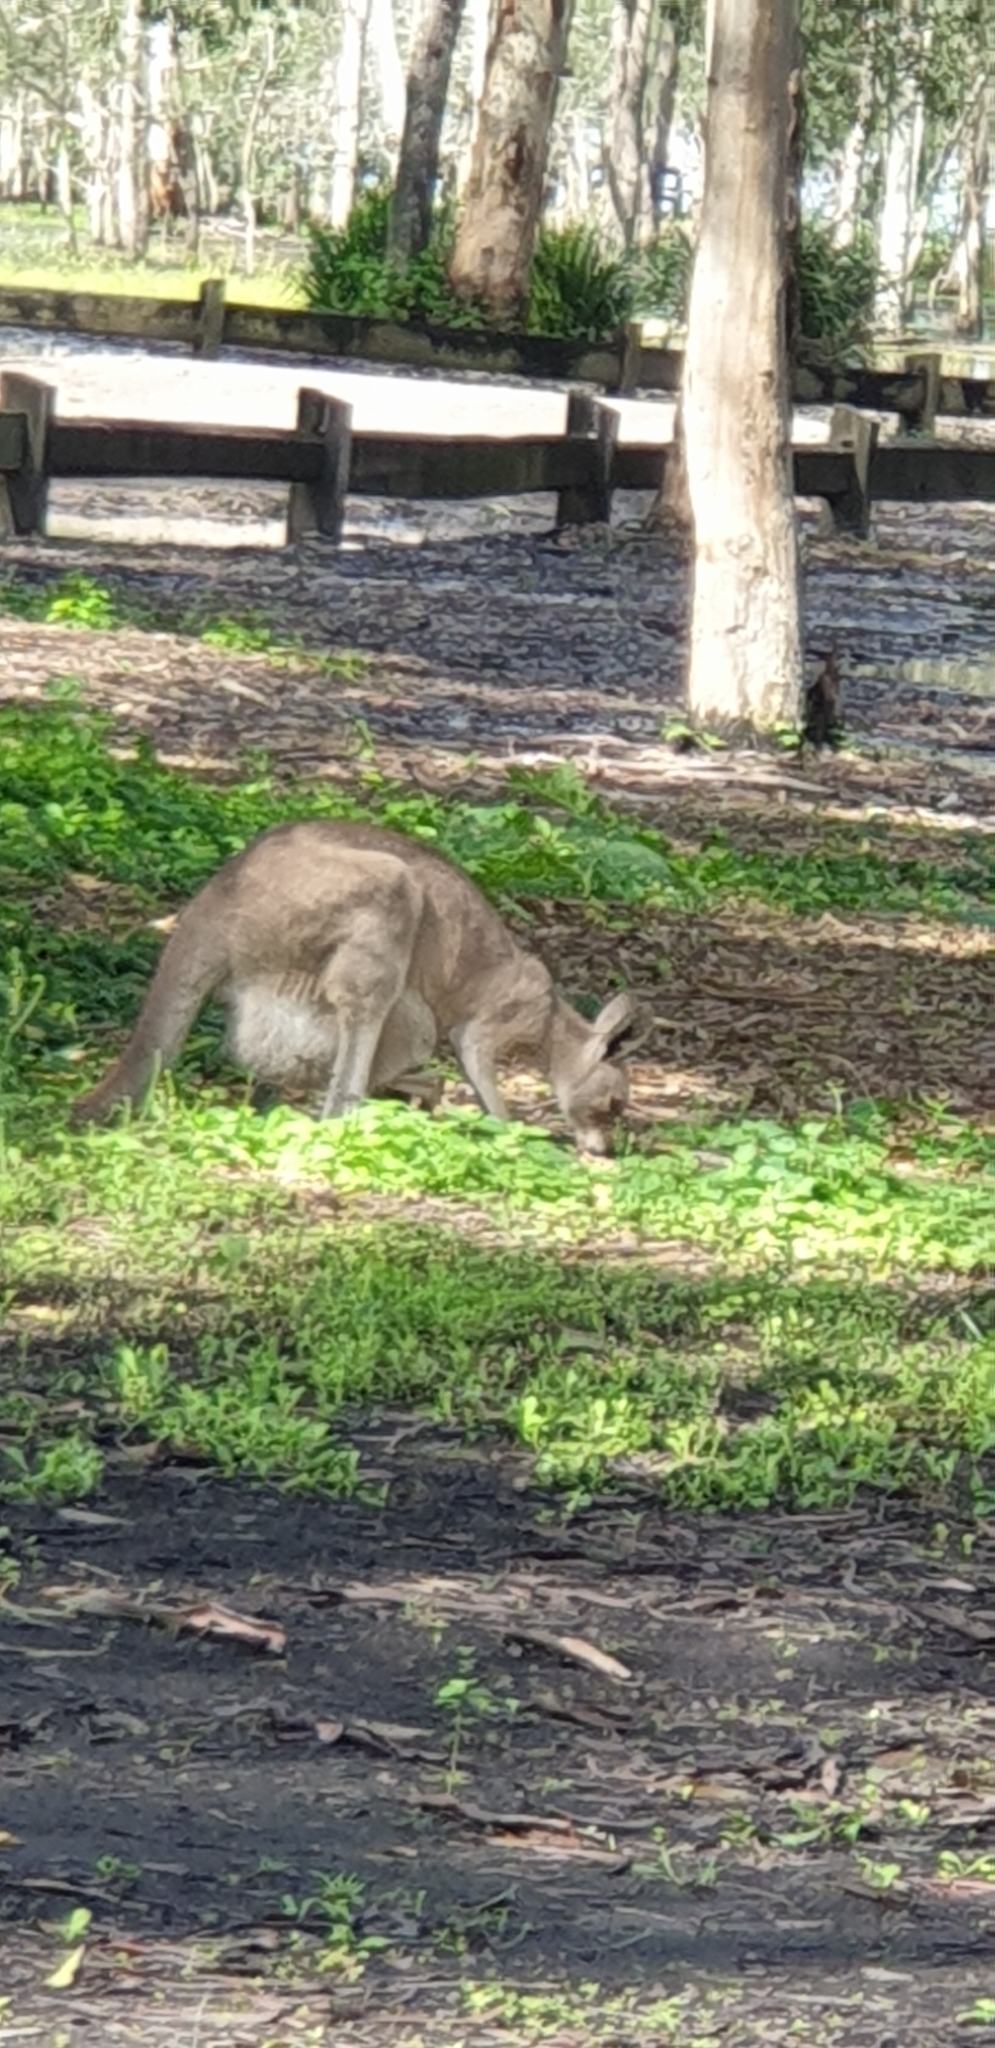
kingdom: Animalia
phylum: Chordata
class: Mammalia
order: Diprotodontia
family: Macropodidae
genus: Macropus
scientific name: Macropus giganteus
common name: Eastern grey kangaroo
